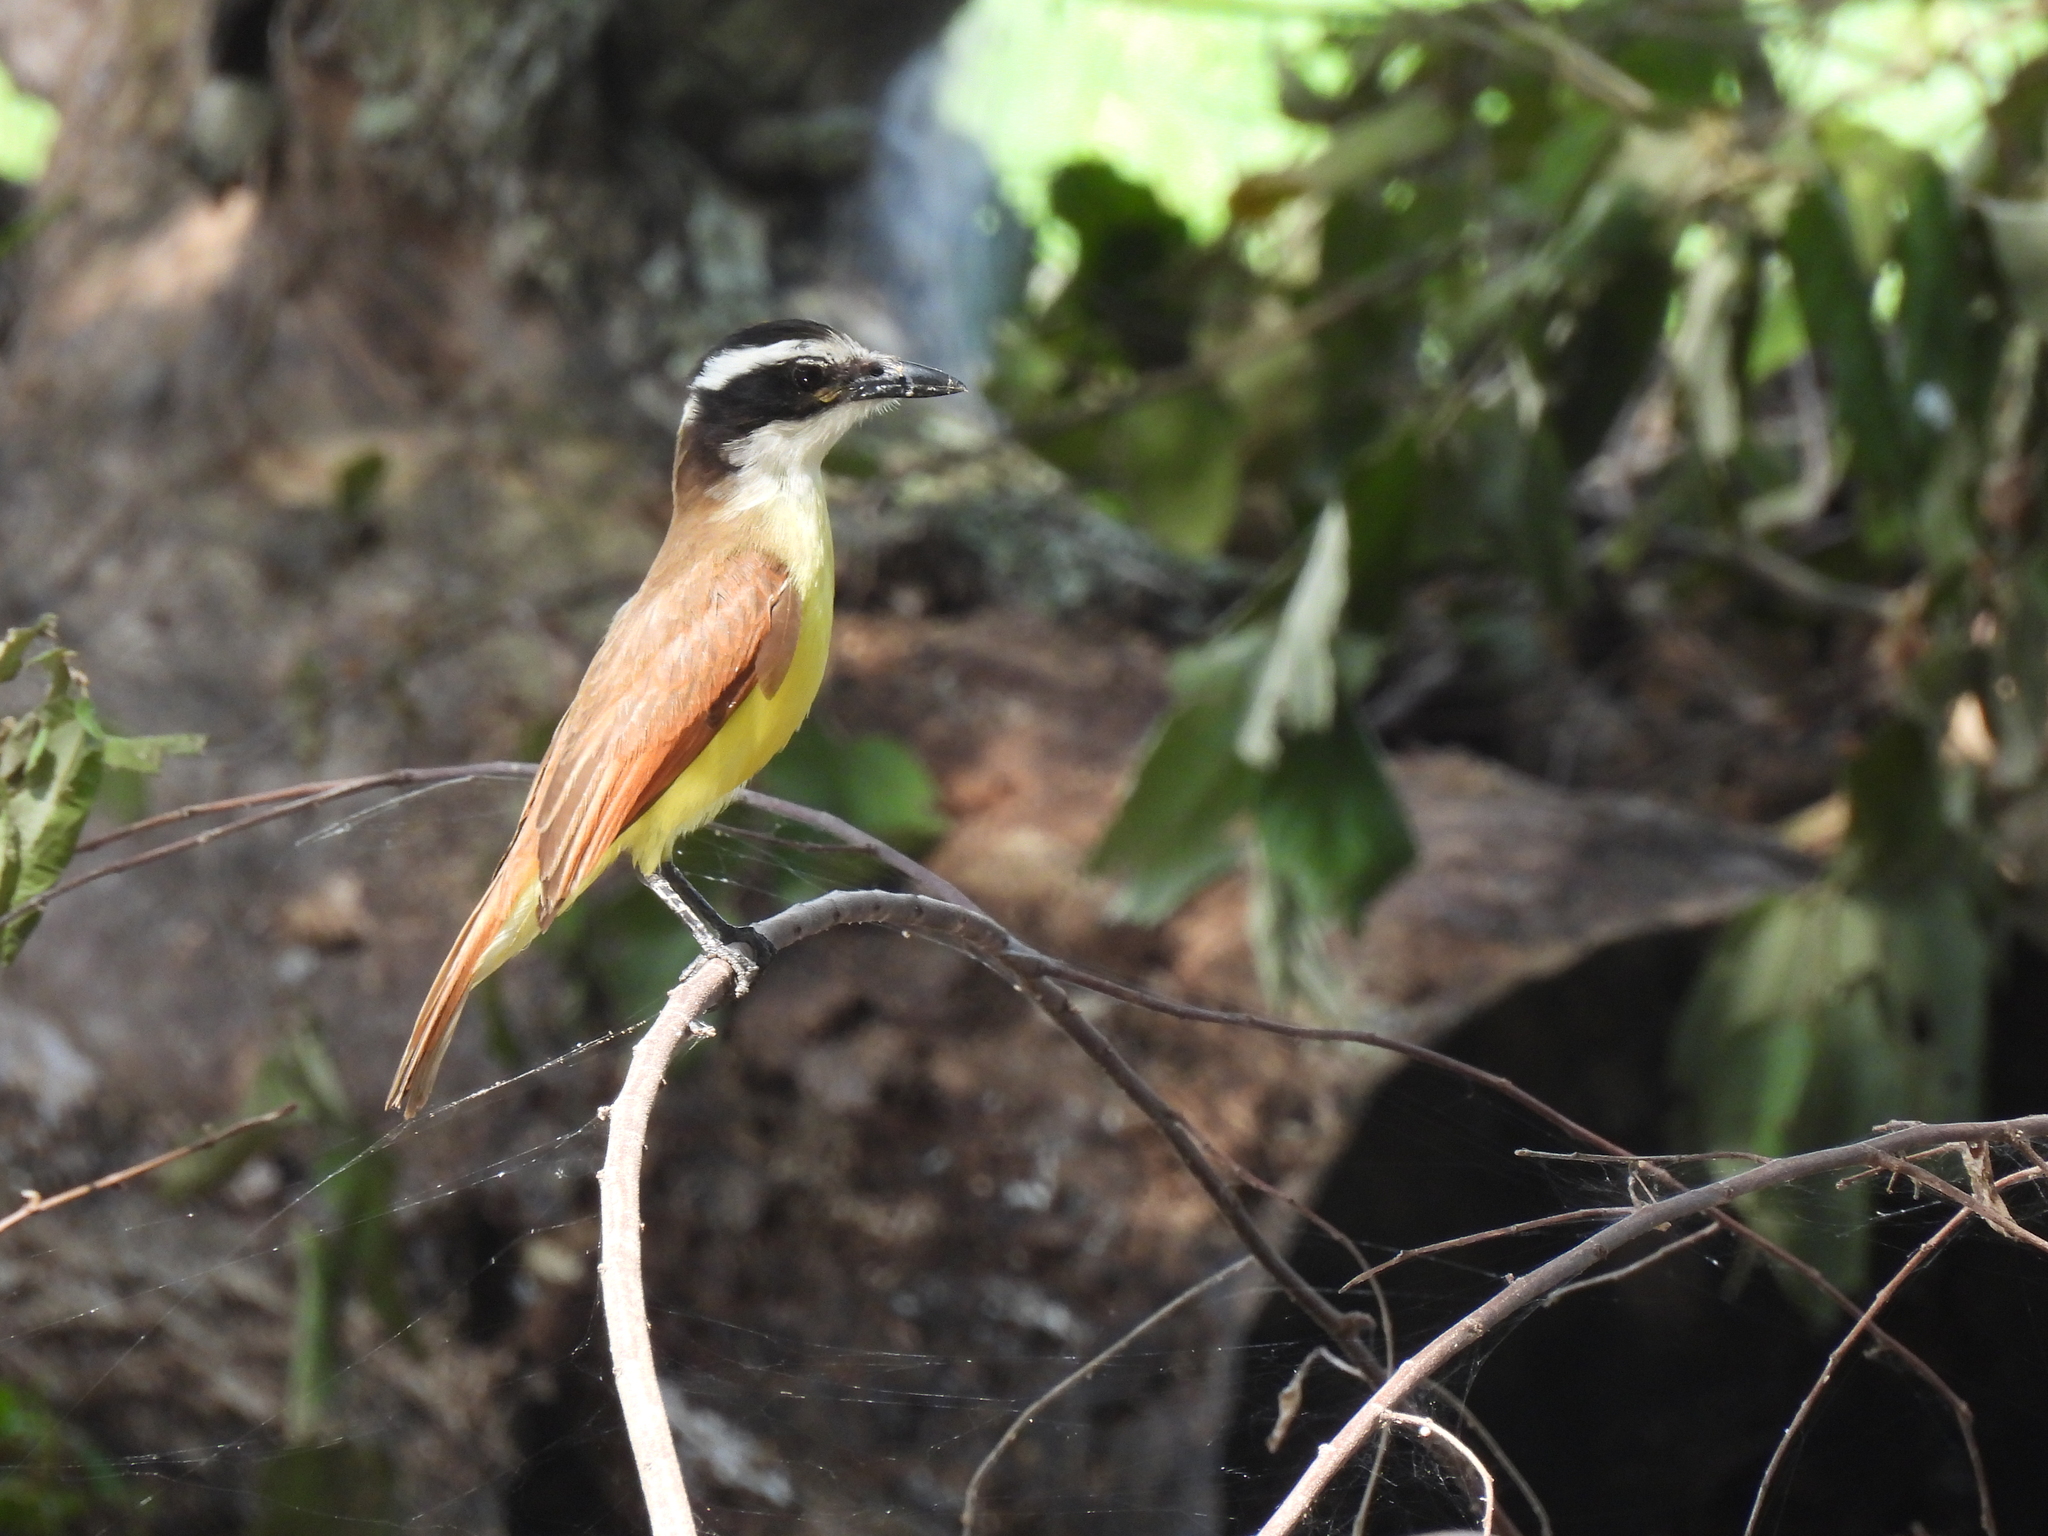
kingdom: Animalia
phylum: Chordata
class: Aves
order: Passeriformes
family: Tyrannidae
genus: Pitangus
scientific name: Pitangus sulphuratus
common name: Great kiskadee
